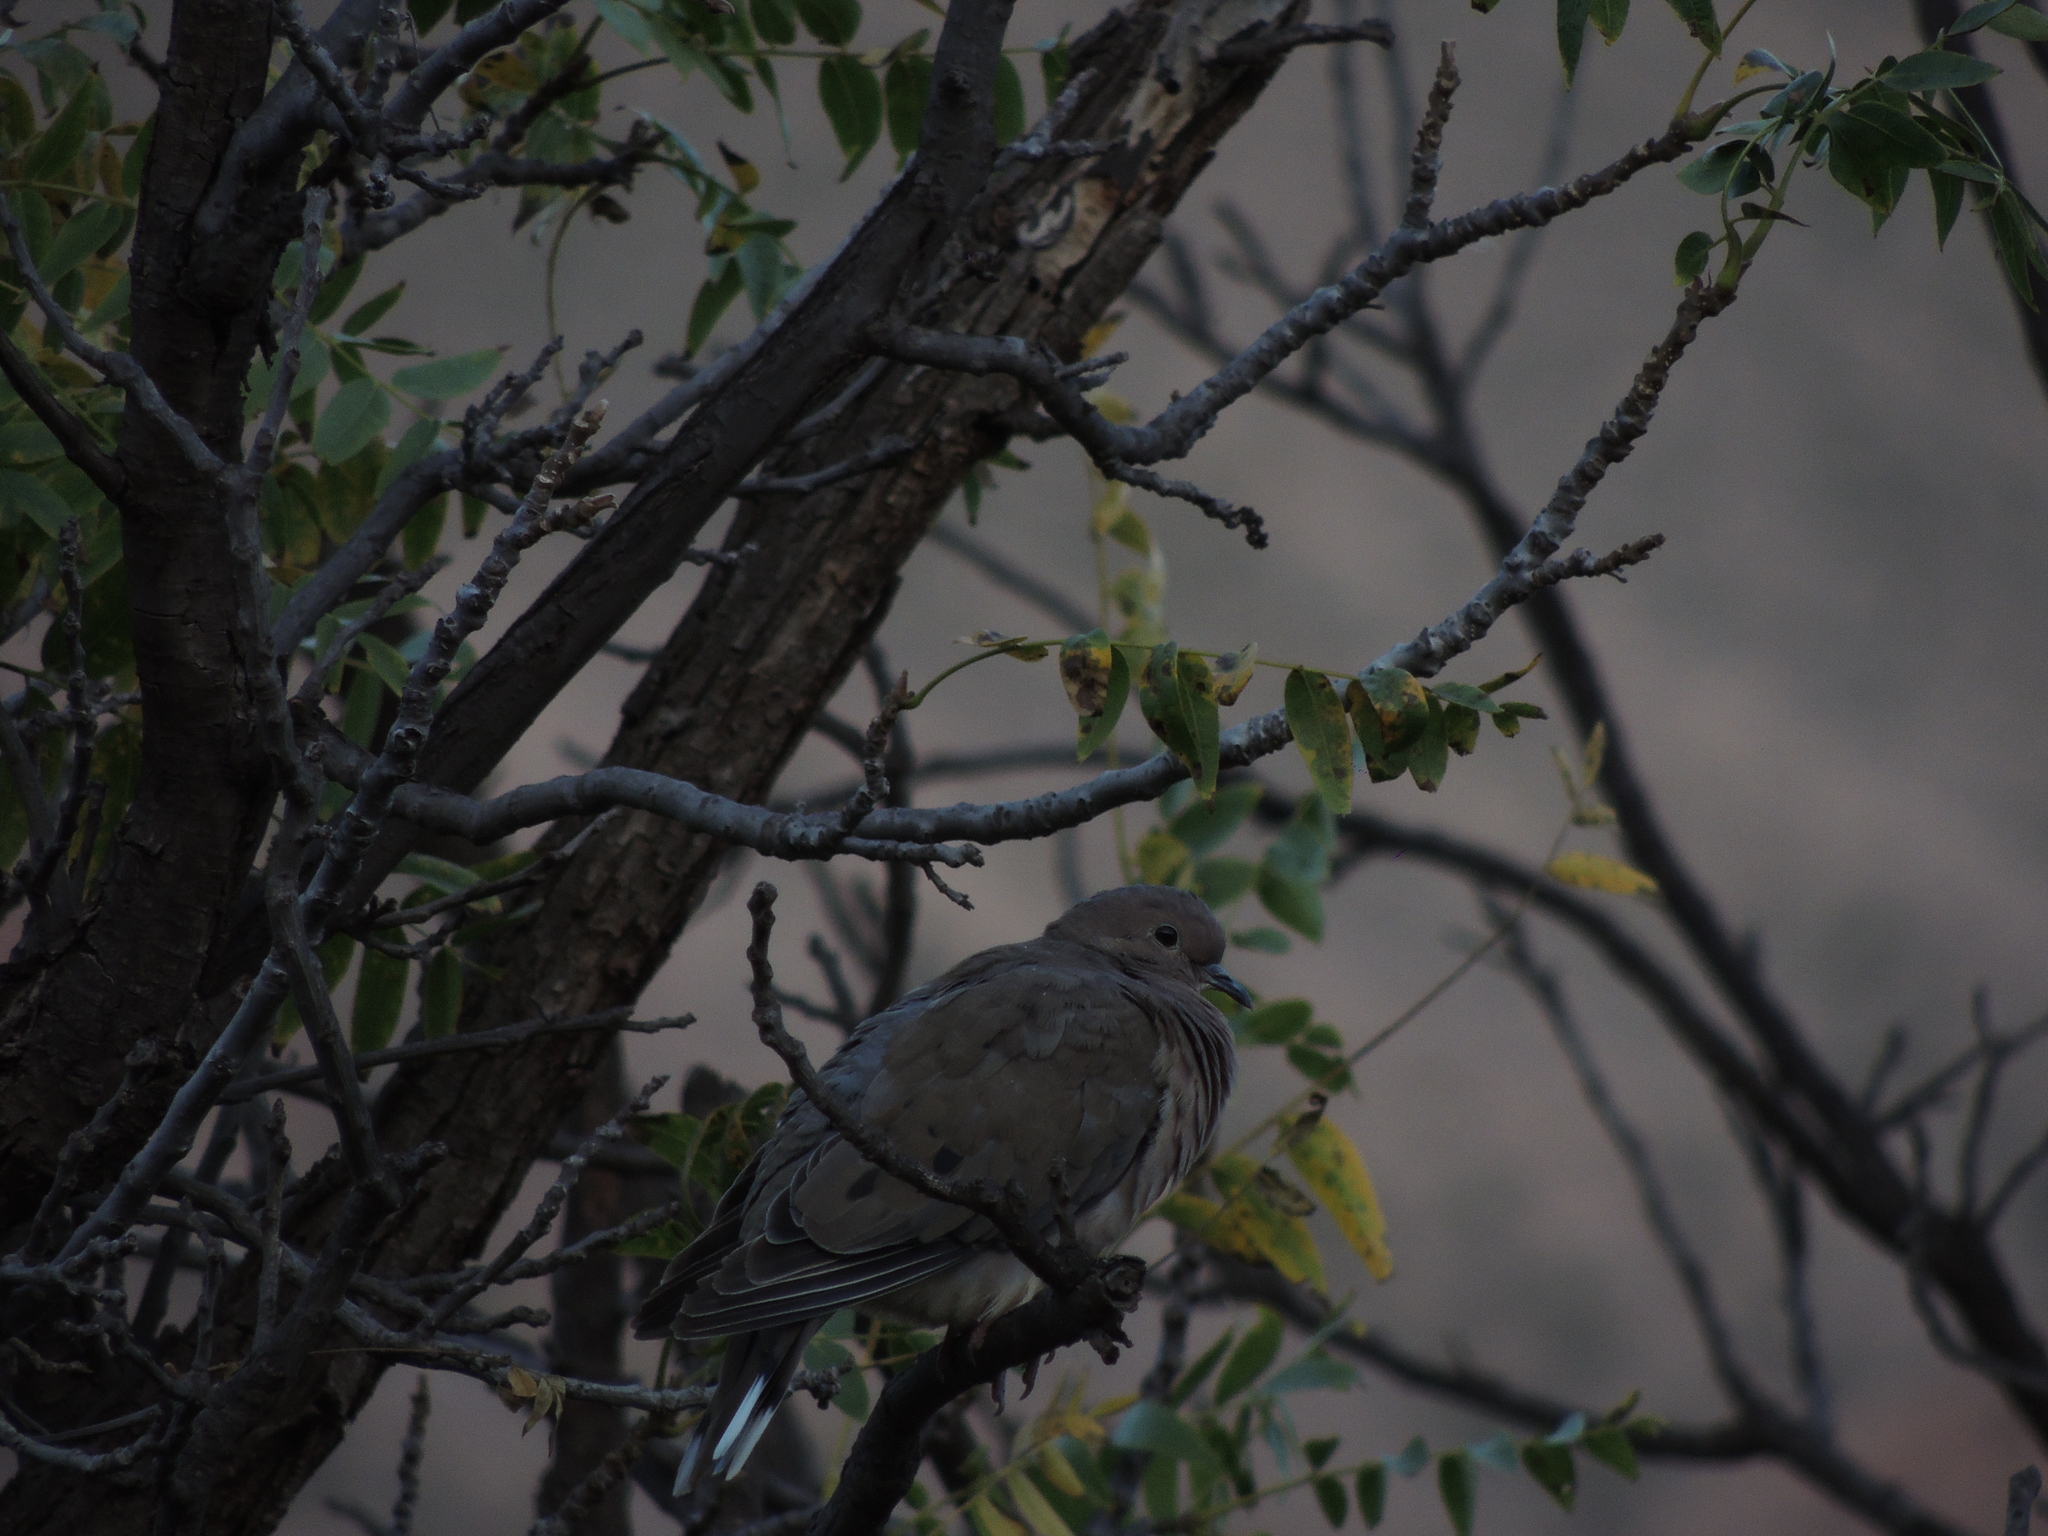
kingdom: Animalia
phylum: Chordata
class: Aves
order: Columbiformes
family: Columbidae
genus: Zenaida
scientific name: Zenaida auriculata
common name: Eared dove
